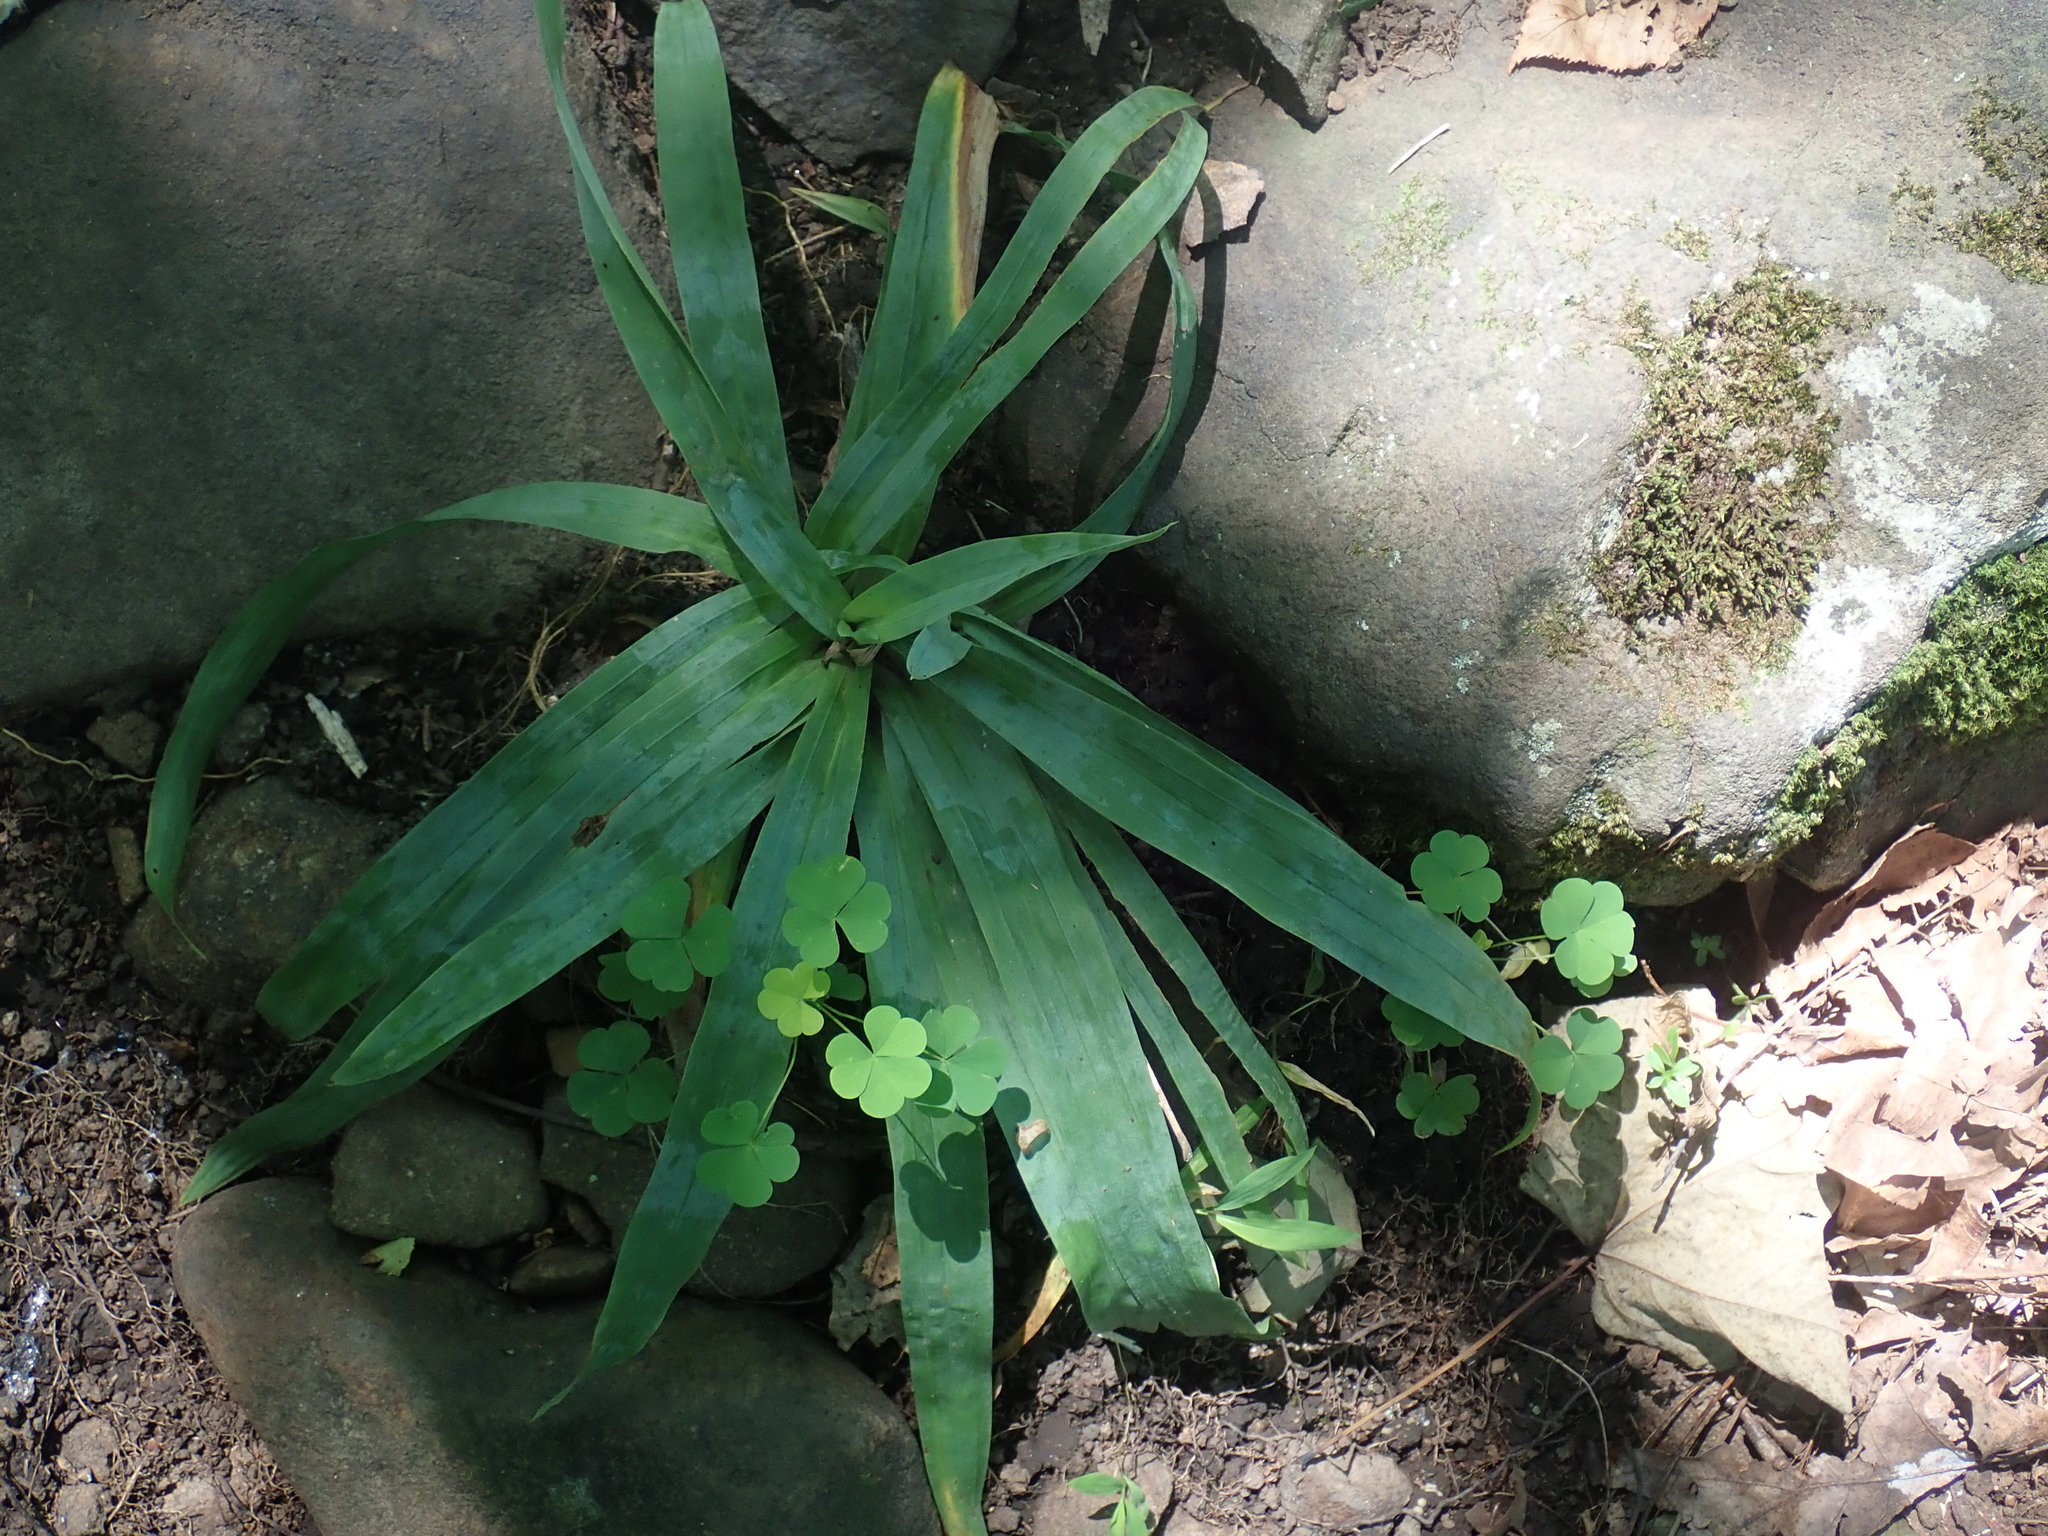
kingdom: Plantae
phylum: Tracheophyta
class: Liliopsida
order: Poales
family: Cyperaceae
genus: Carex
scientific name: Carex platyphylla
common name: Broad-leaved sedge
